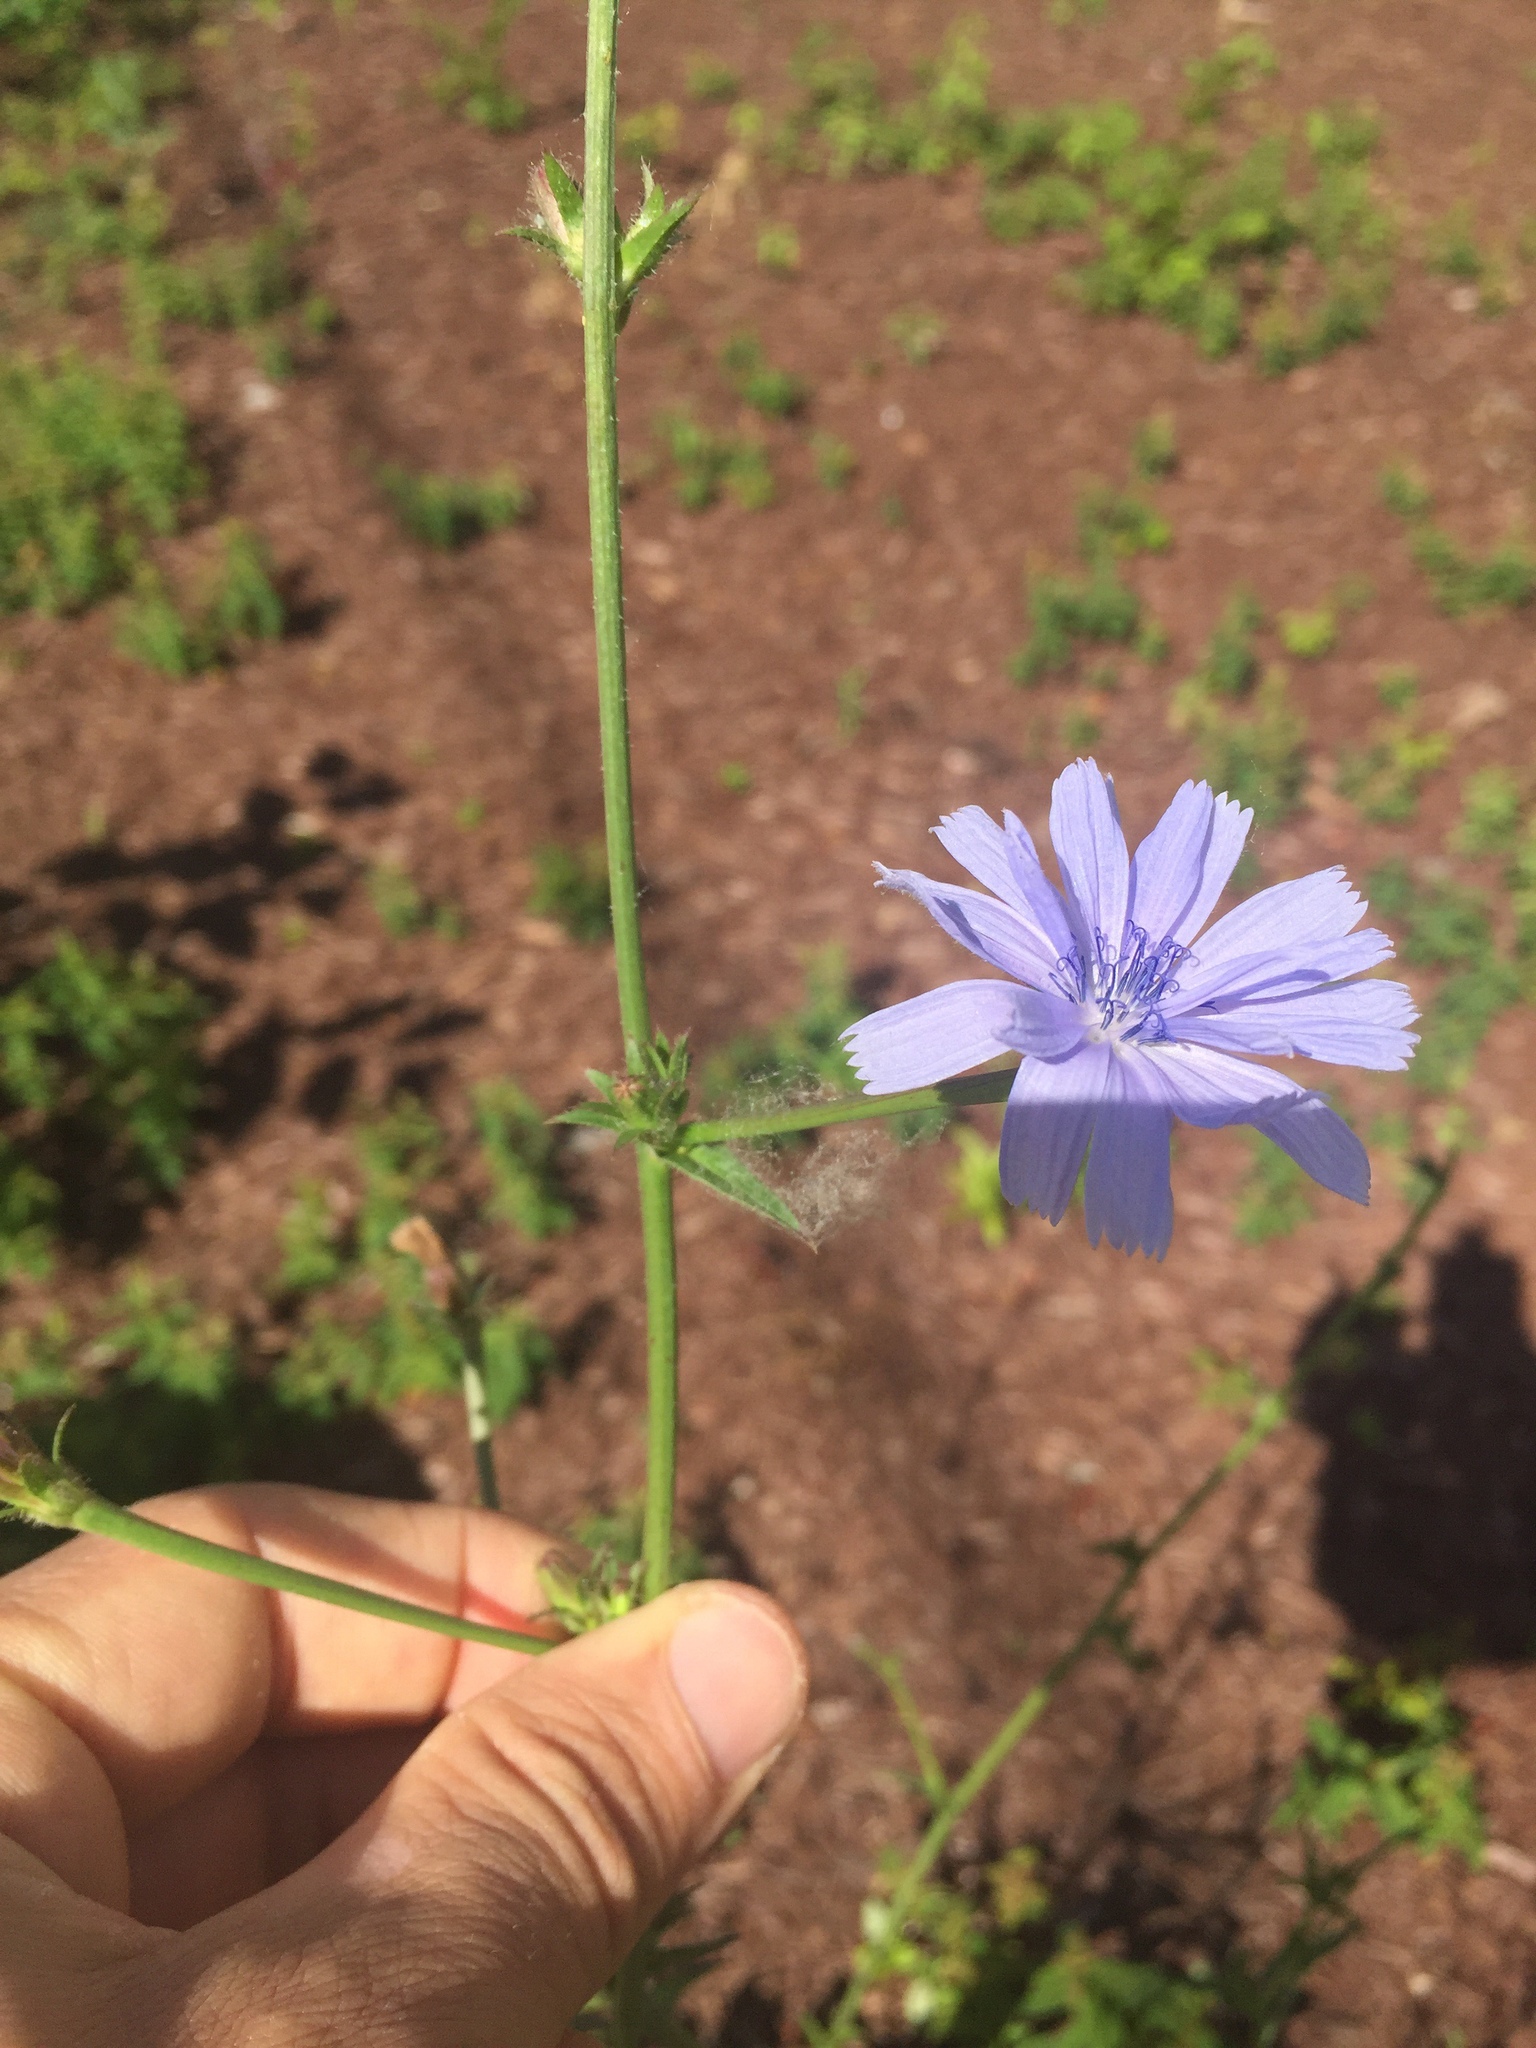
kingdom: Plantae
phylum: Tracheophyta
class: Magnoliopsida
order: Asterales
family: Asteraceae
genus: Cichorium
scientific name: Cichorium intybus
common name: Chicory
